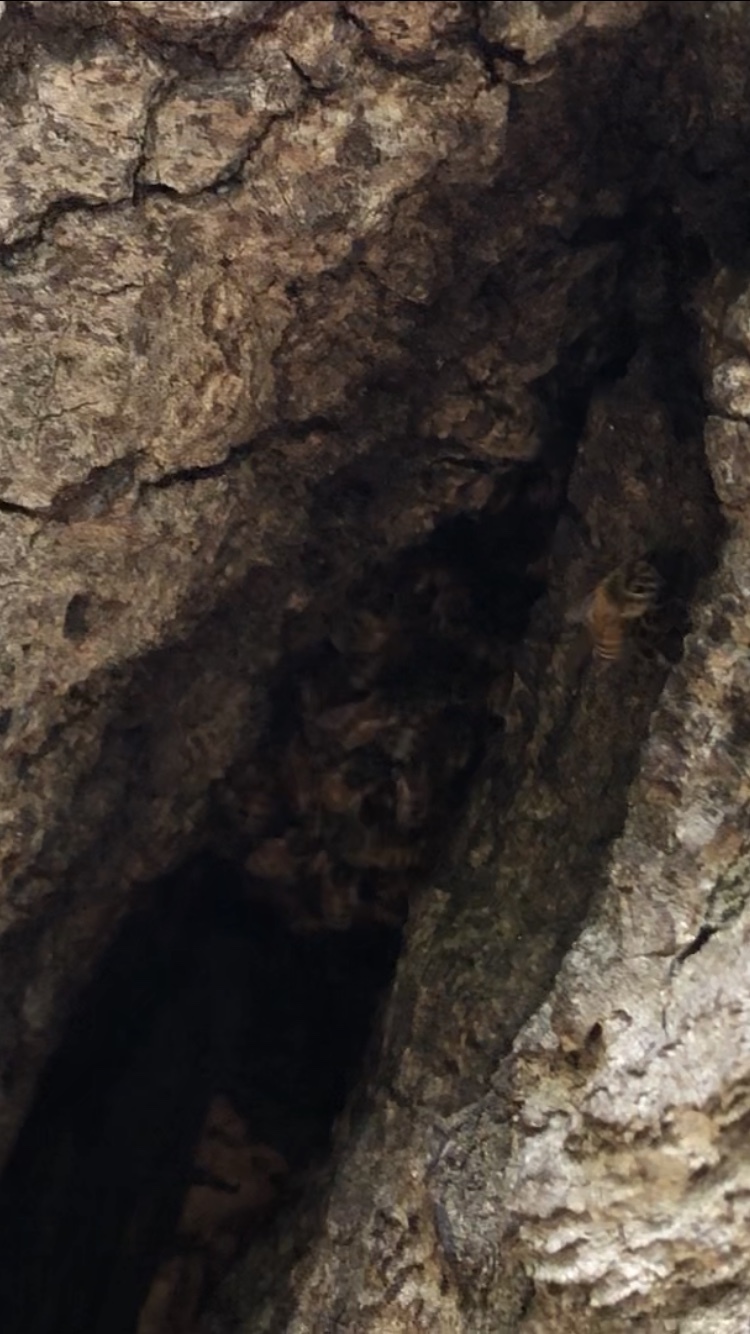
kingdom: Animalia
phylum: Arthropoda
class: Insecta
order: Hymenoptera
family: Apidae
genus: Apis
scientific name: Apis mellifera
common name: Honey bee
